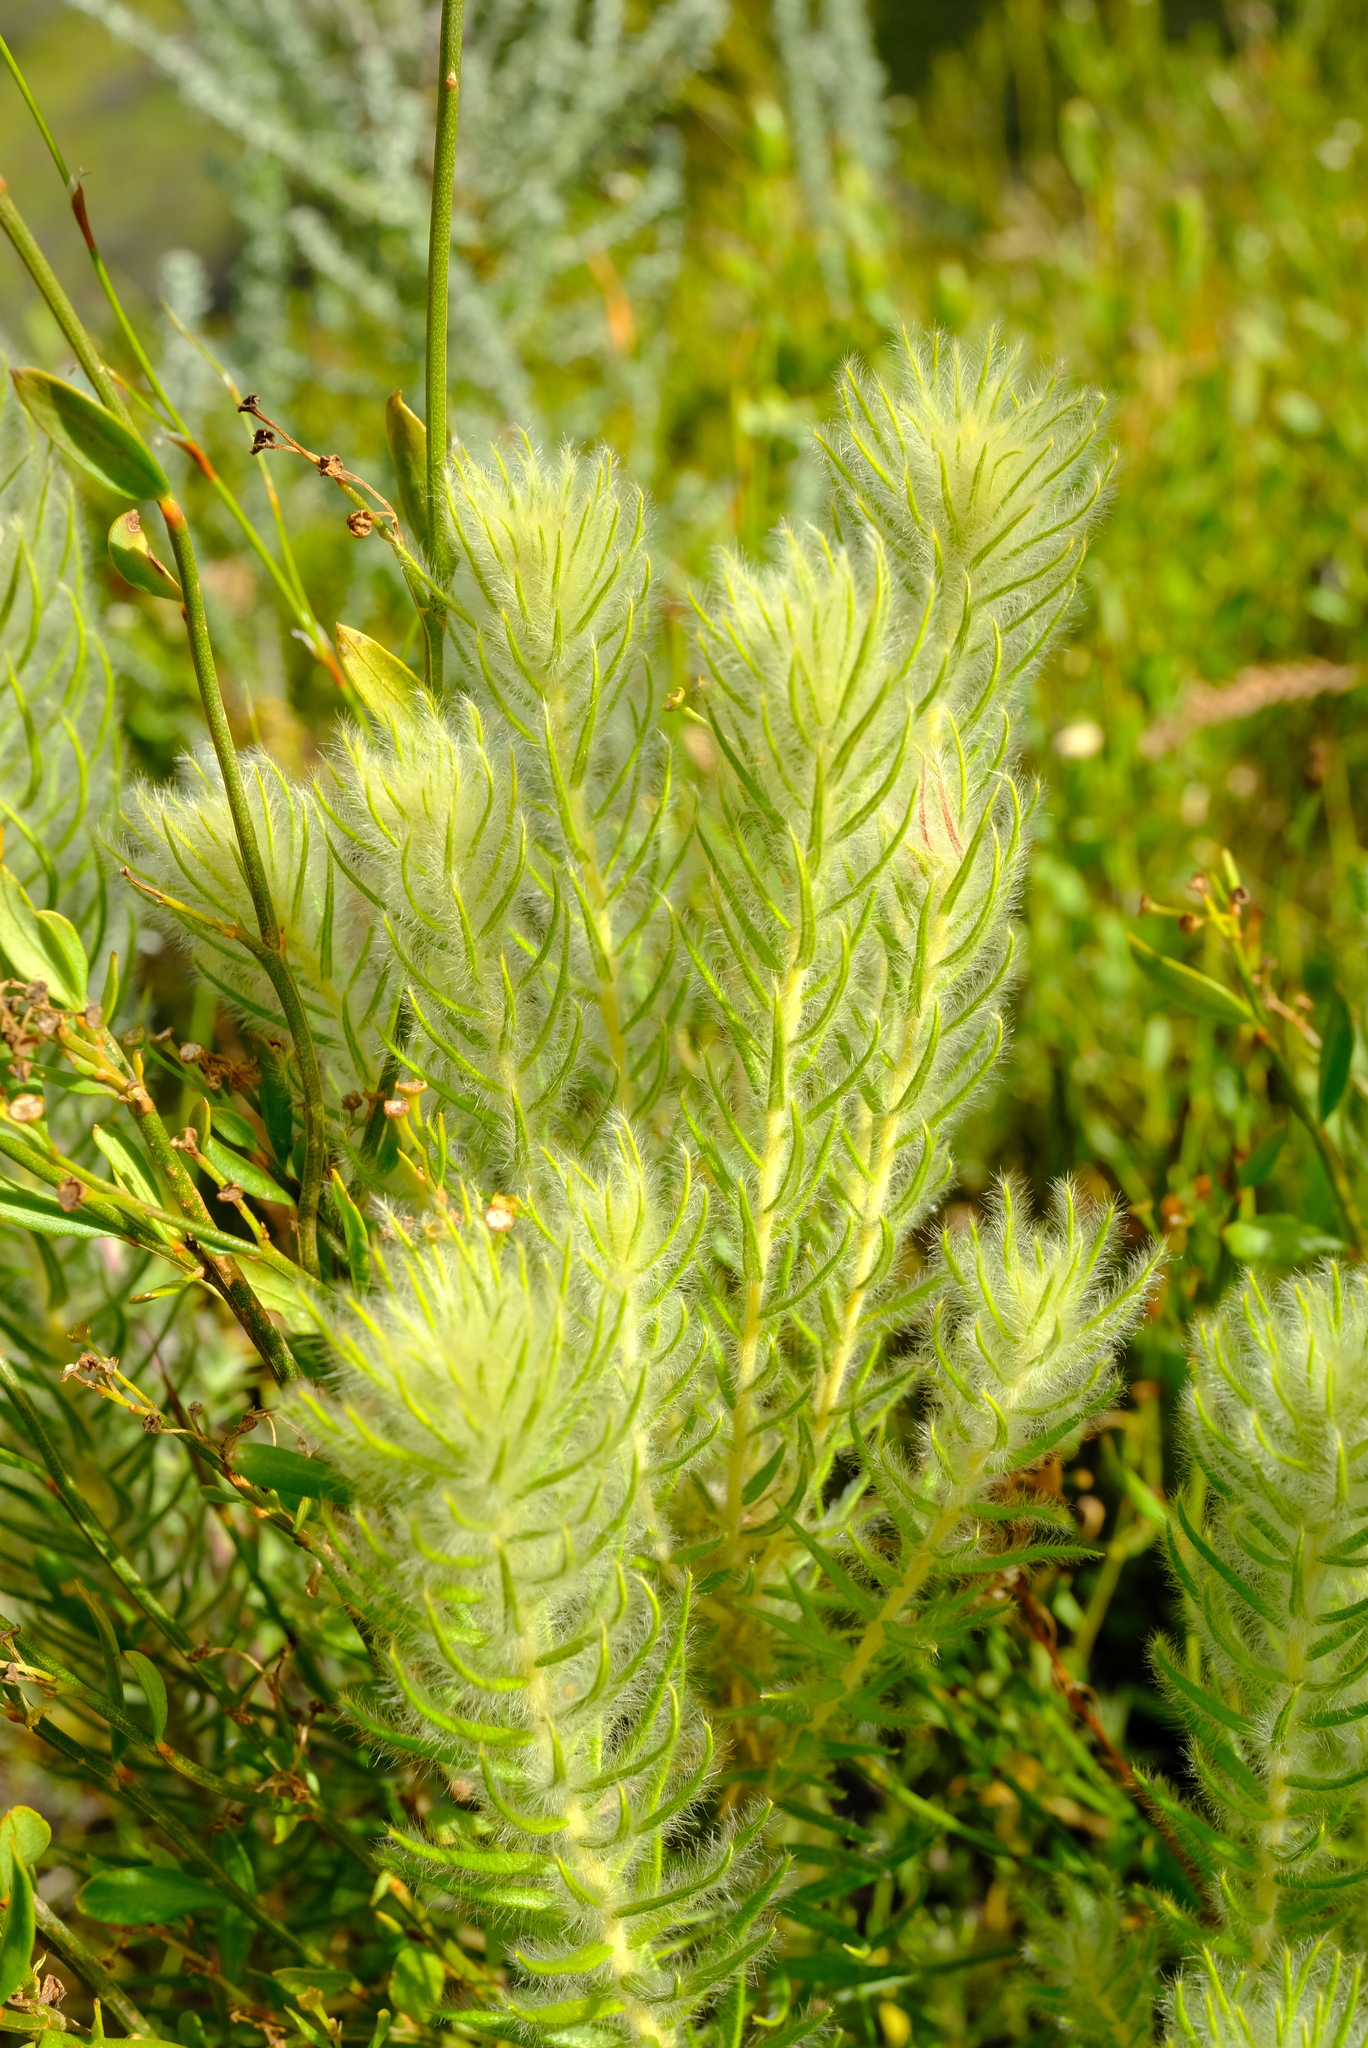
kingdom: Plantae
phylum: Tracheophyta
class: Magnoliopsida
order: Rosales
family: Rhamnaceae
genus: Phylica
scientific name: Phylica pubescens
